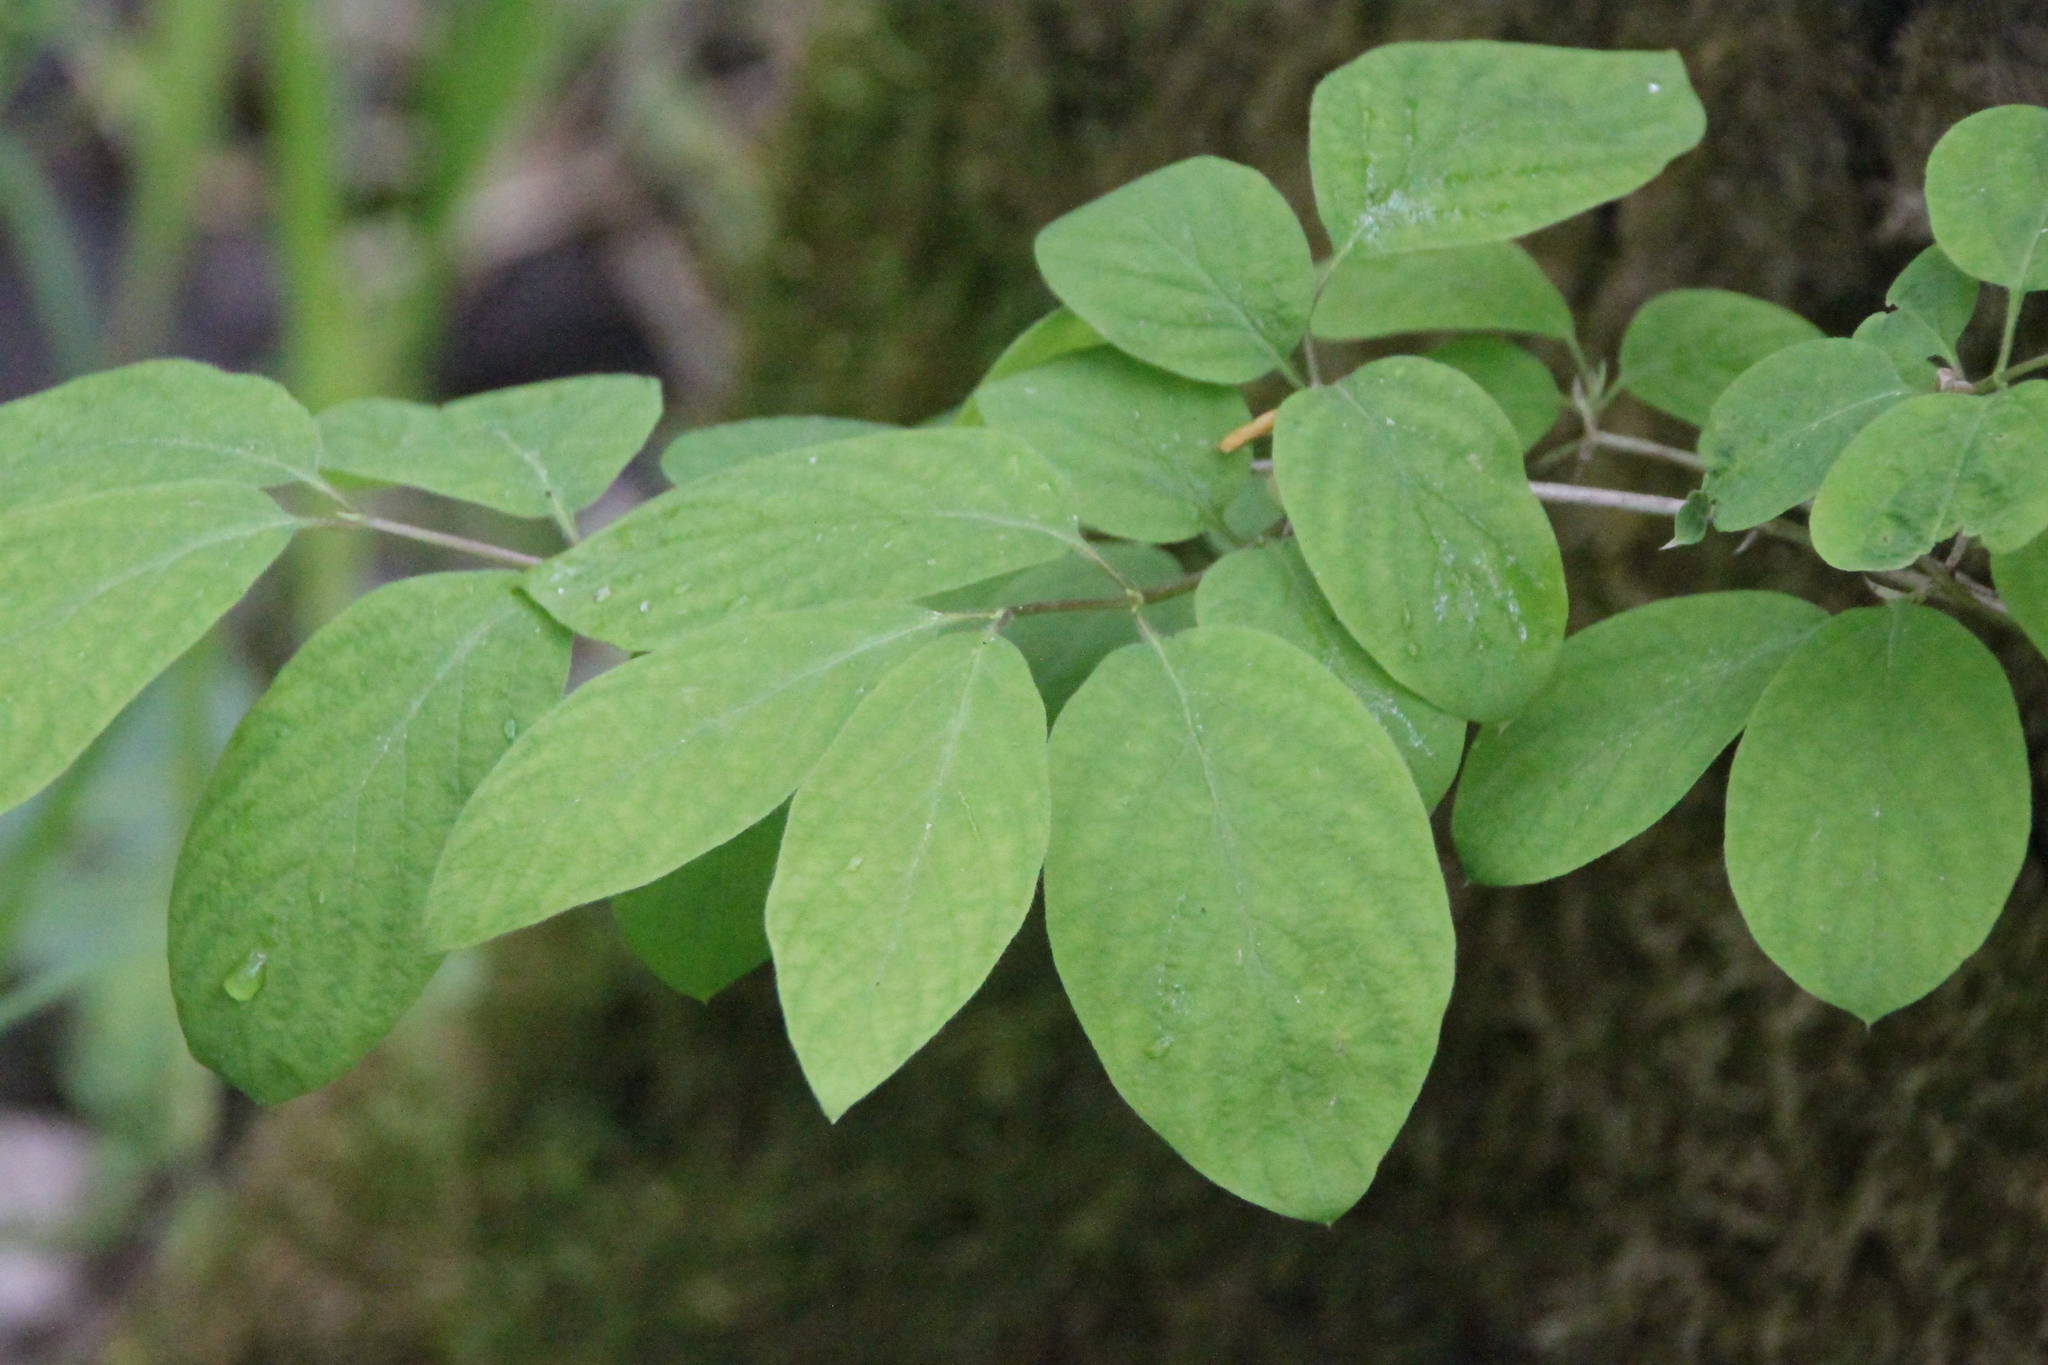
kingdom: Plantae
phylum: Tracheophyta
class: Magnoliopsida
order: Dipsacales
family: Caprifoliaceae
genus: Lonicera
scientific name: Lonicera xylosteum
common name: Fly honeysuckle
